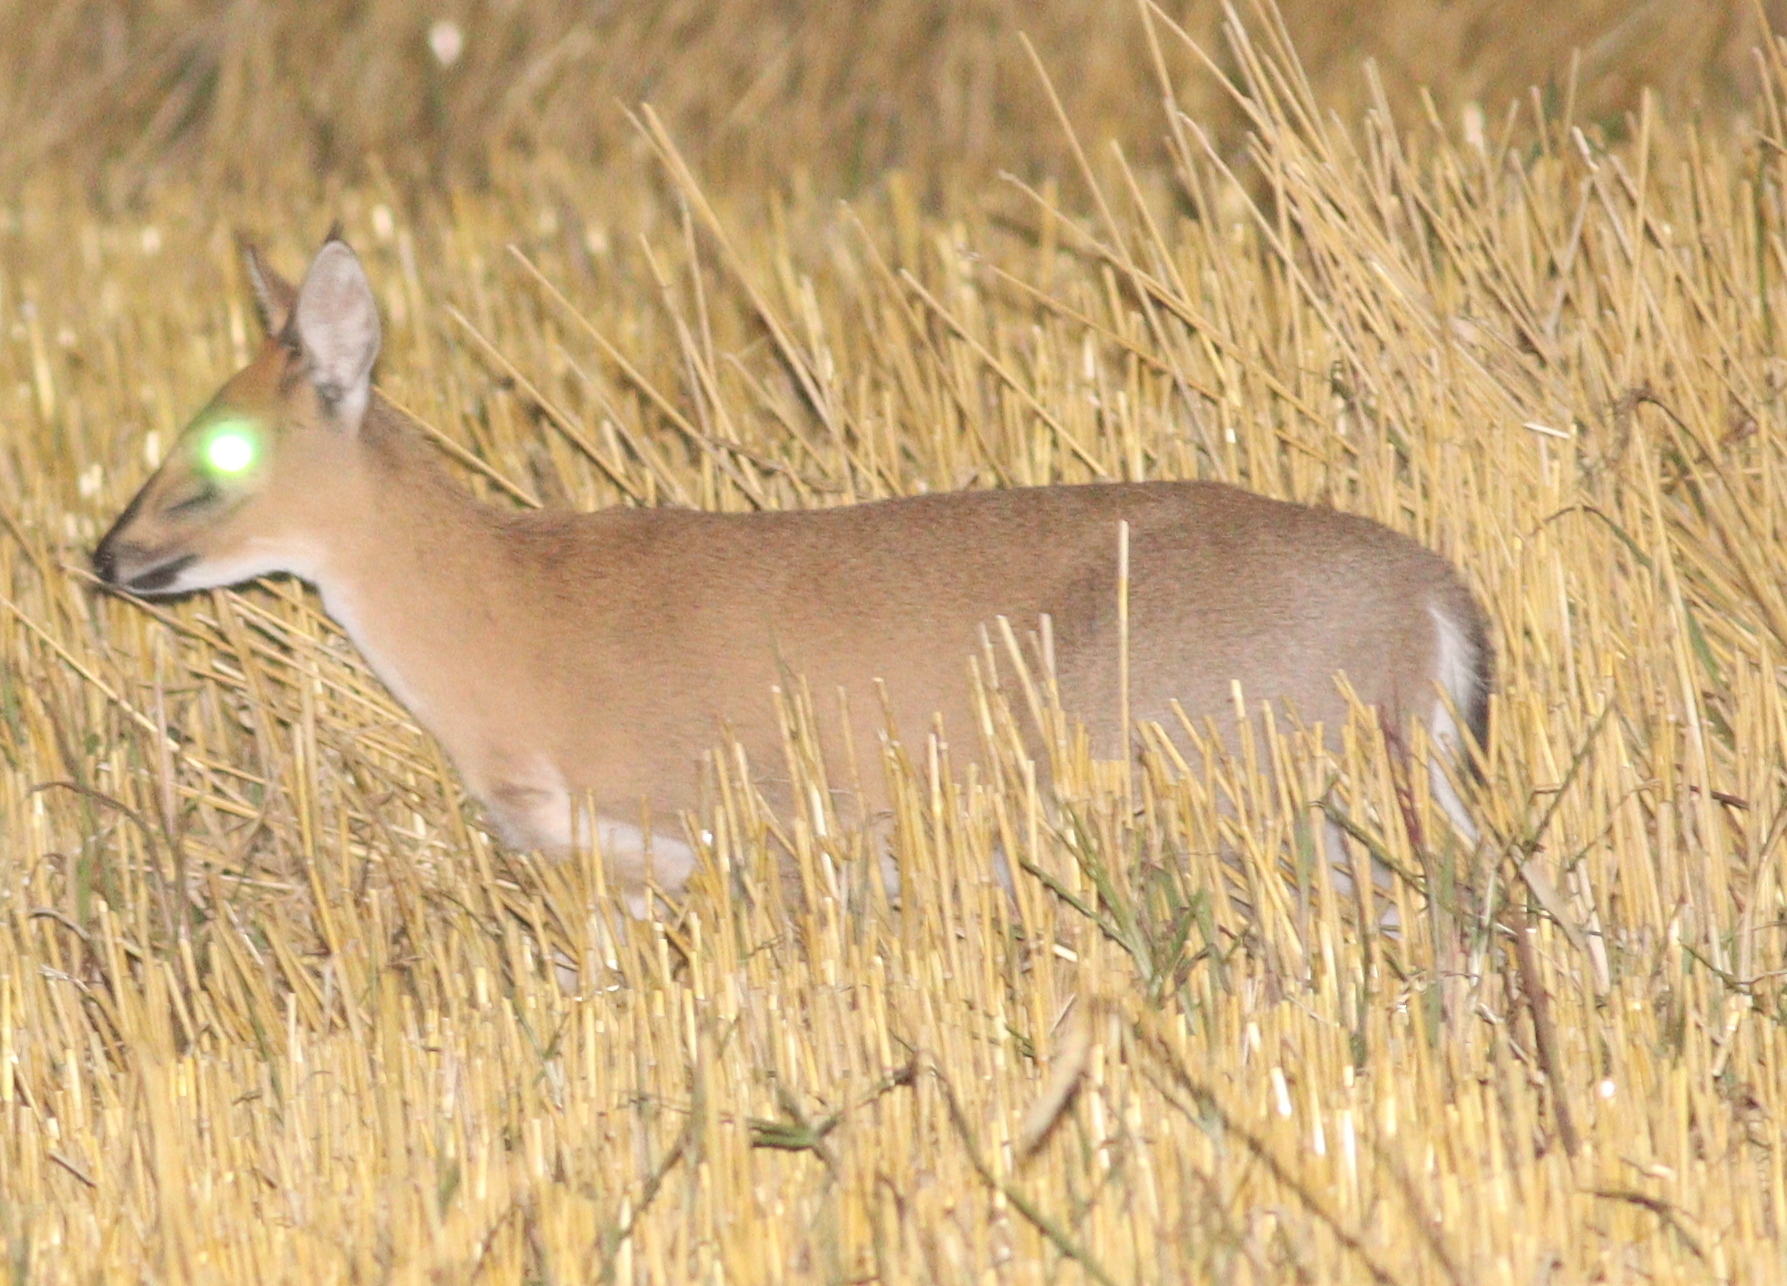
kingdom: Animalia
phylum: Chordata
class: Mammalia
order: Artiodactyla
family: Bovidae
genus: Sylvicapra
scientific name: Sylvicapra grimmia
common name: Bush duiker
